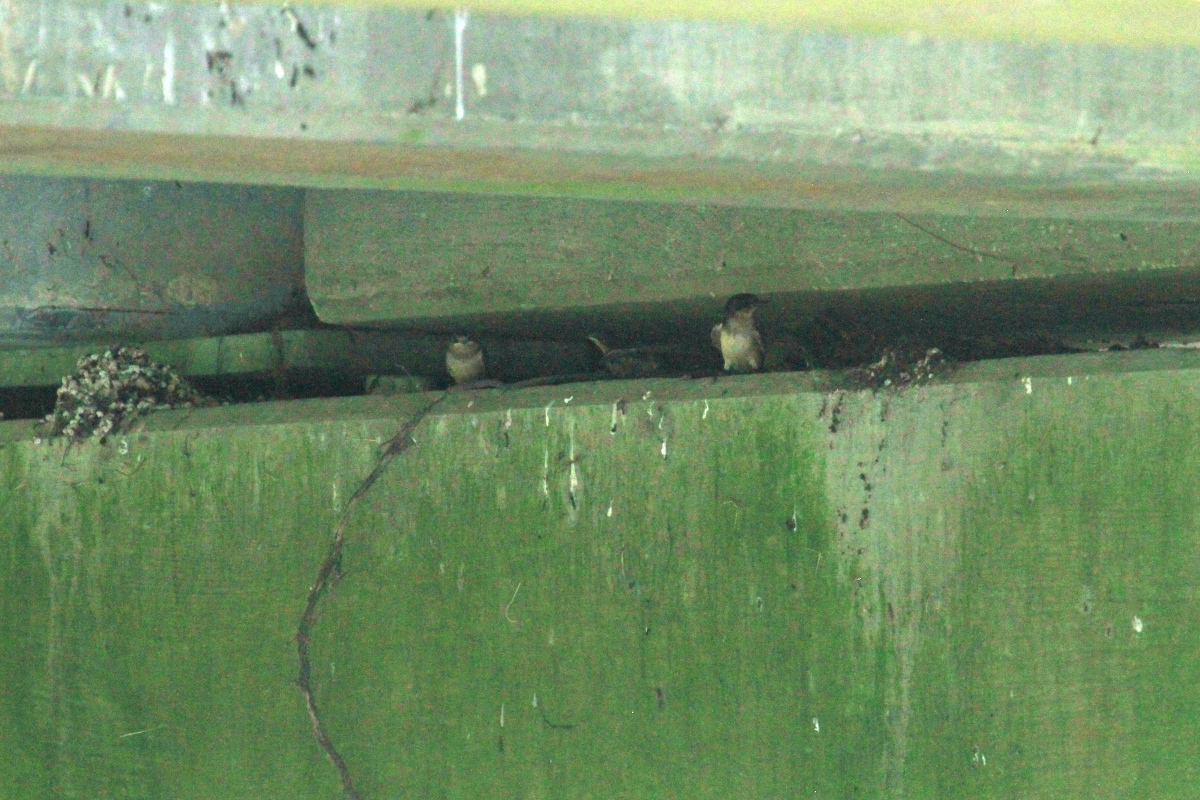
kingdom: Animalia
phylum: Chordata
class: Aves
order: Passeriformes
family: Hirundinidae
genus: Hirundo
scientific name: Hirundo rustica
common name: Barn swallow
